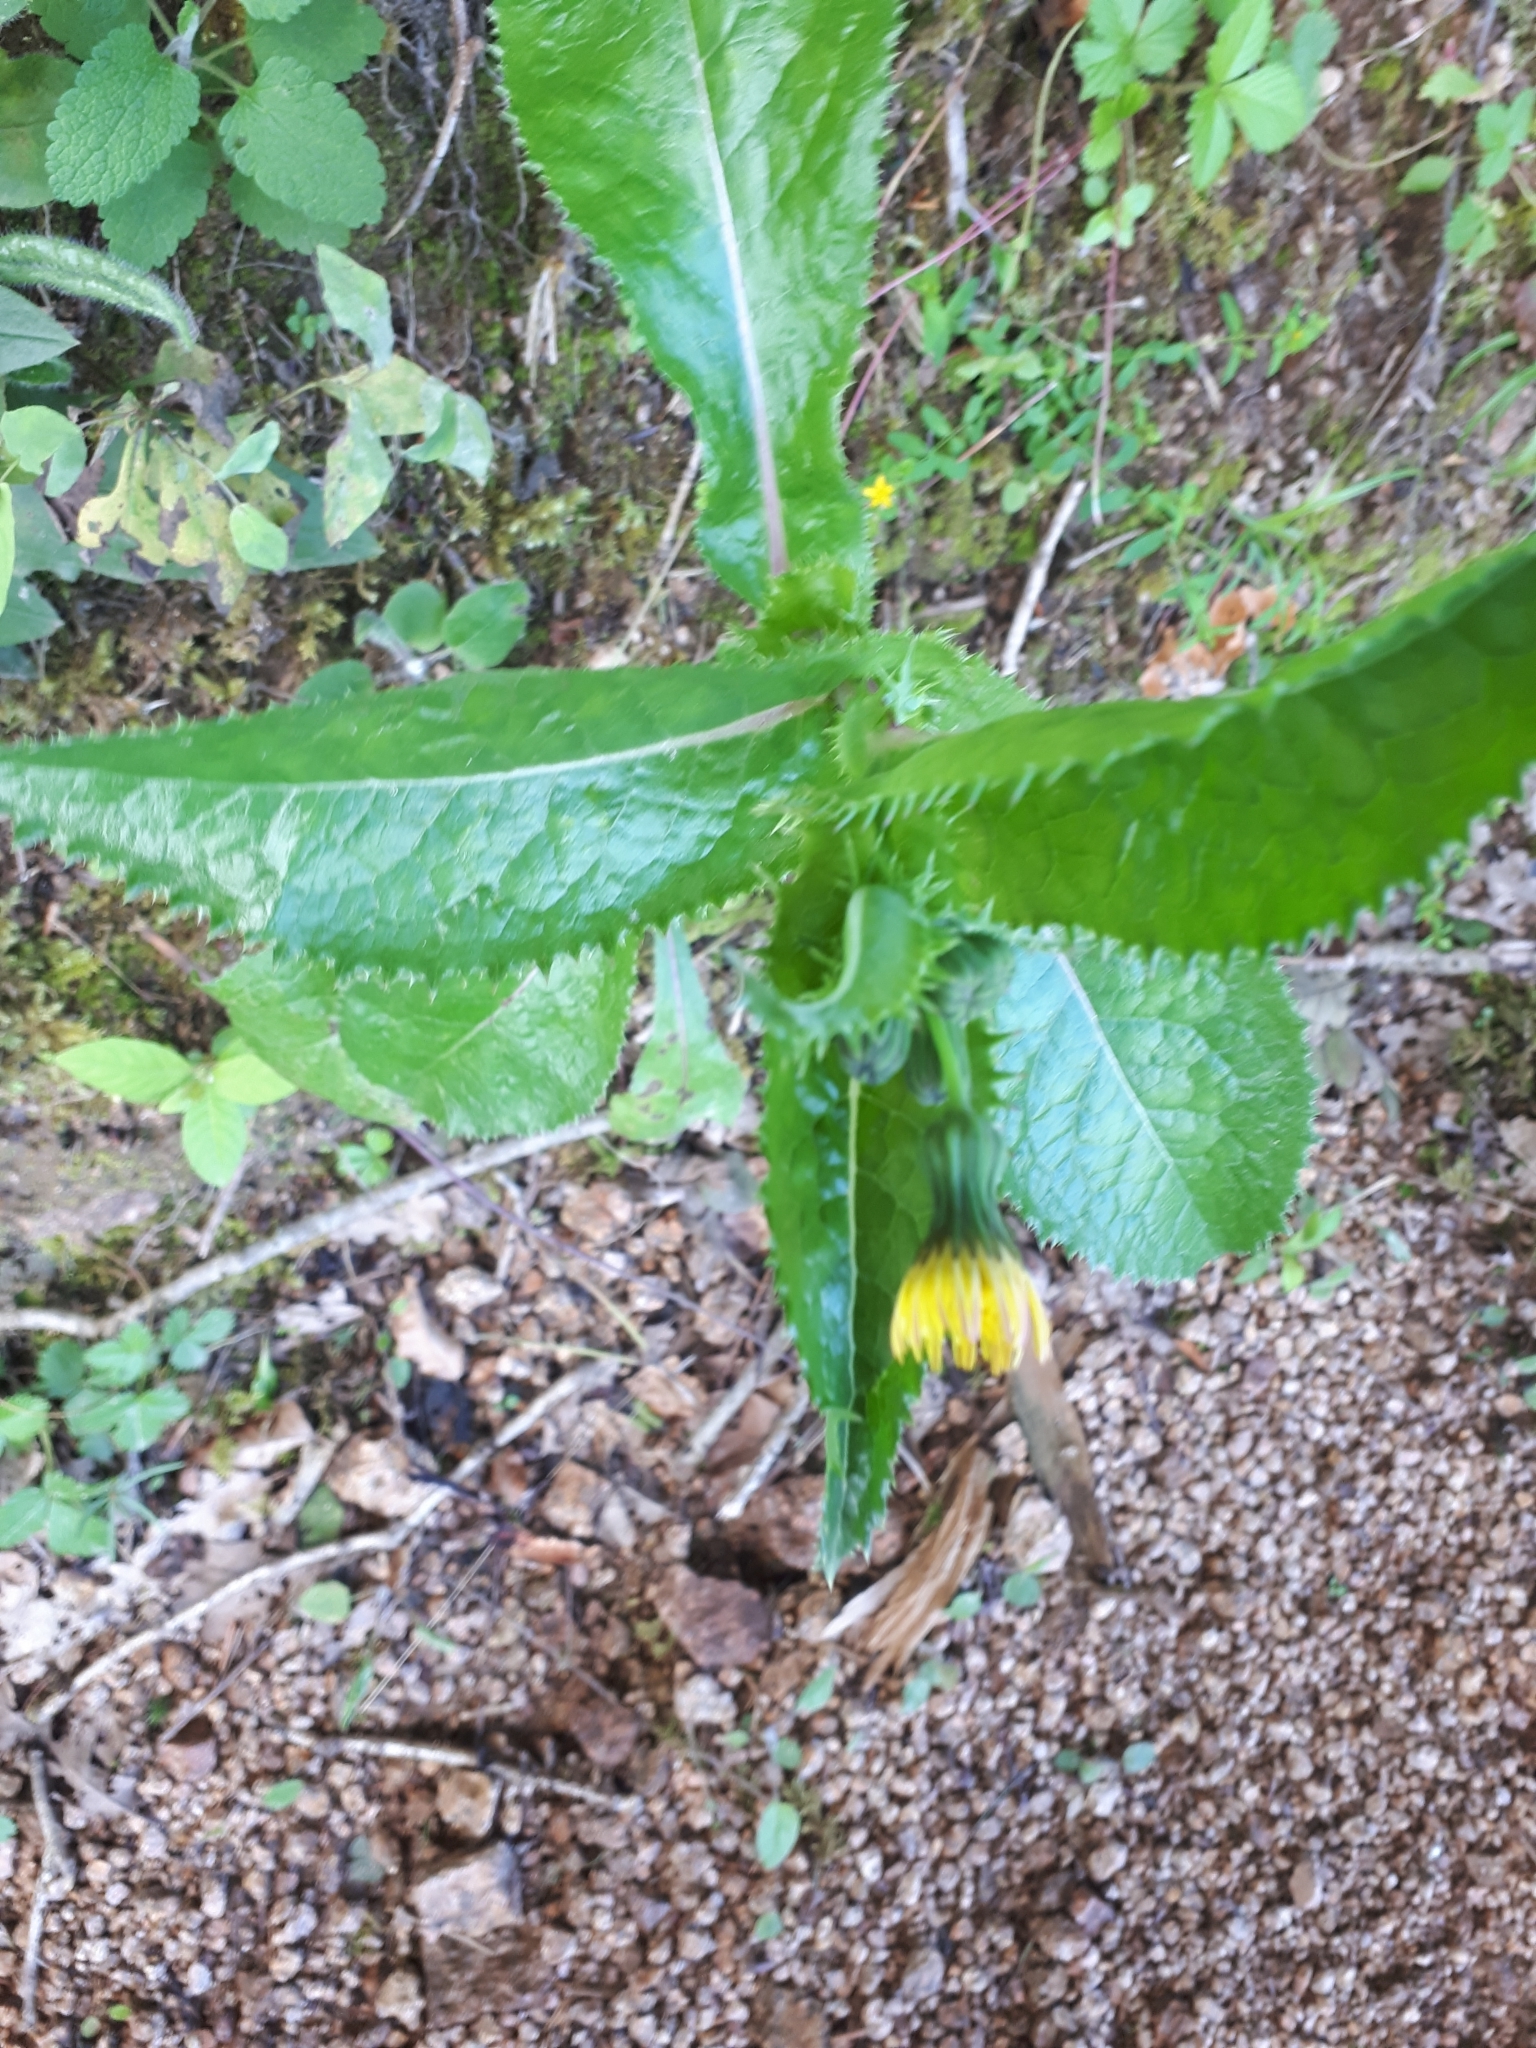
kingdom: Plantae
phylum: Tracheophyta
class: Magnoliopsida
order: Asterales
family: Asteraceae
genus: Sonchus
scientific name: Sonchus asper
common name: Prickly sow-thistle
